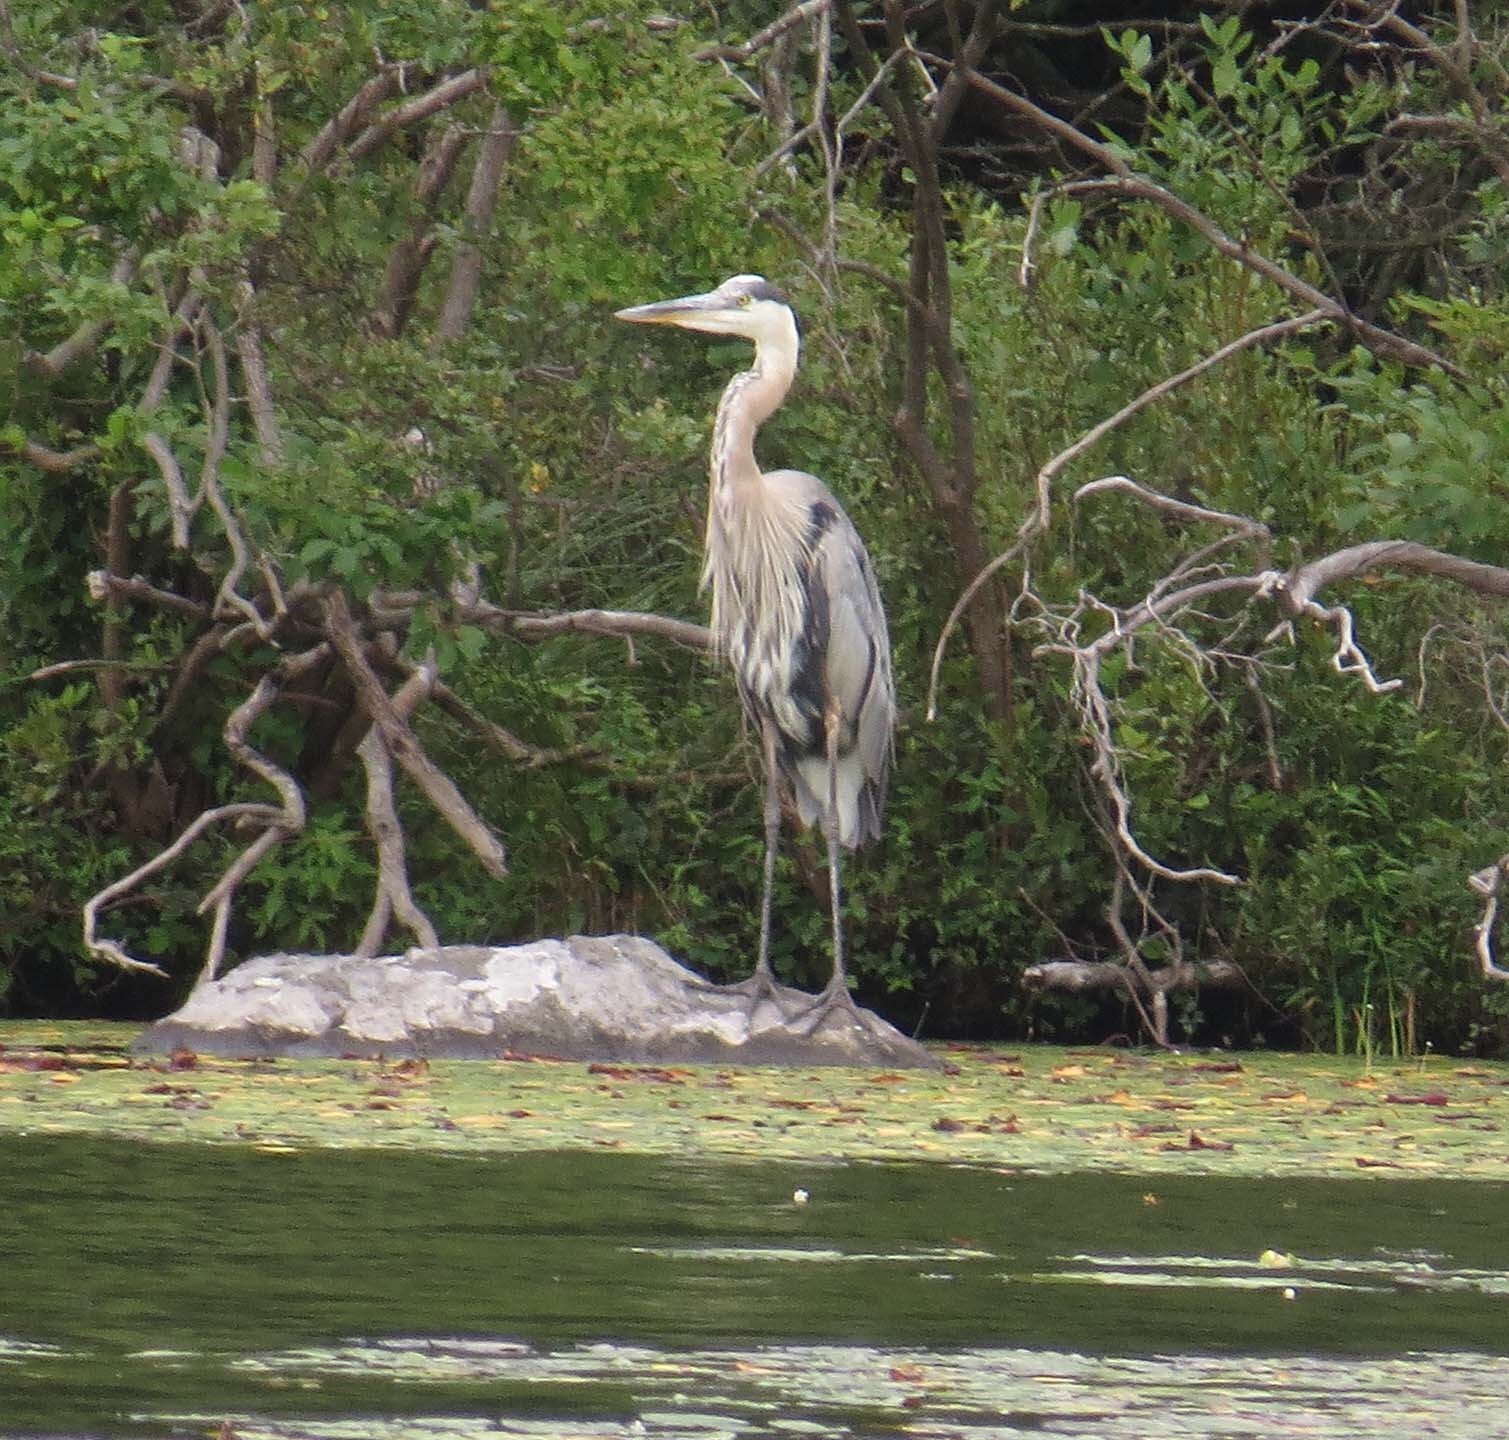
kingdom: Animalia
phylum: Chordata
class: Aves
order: Pelecaniformes
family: Ardeidae
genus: Ardea
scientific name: Ardea herodias
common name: Great blue heron
